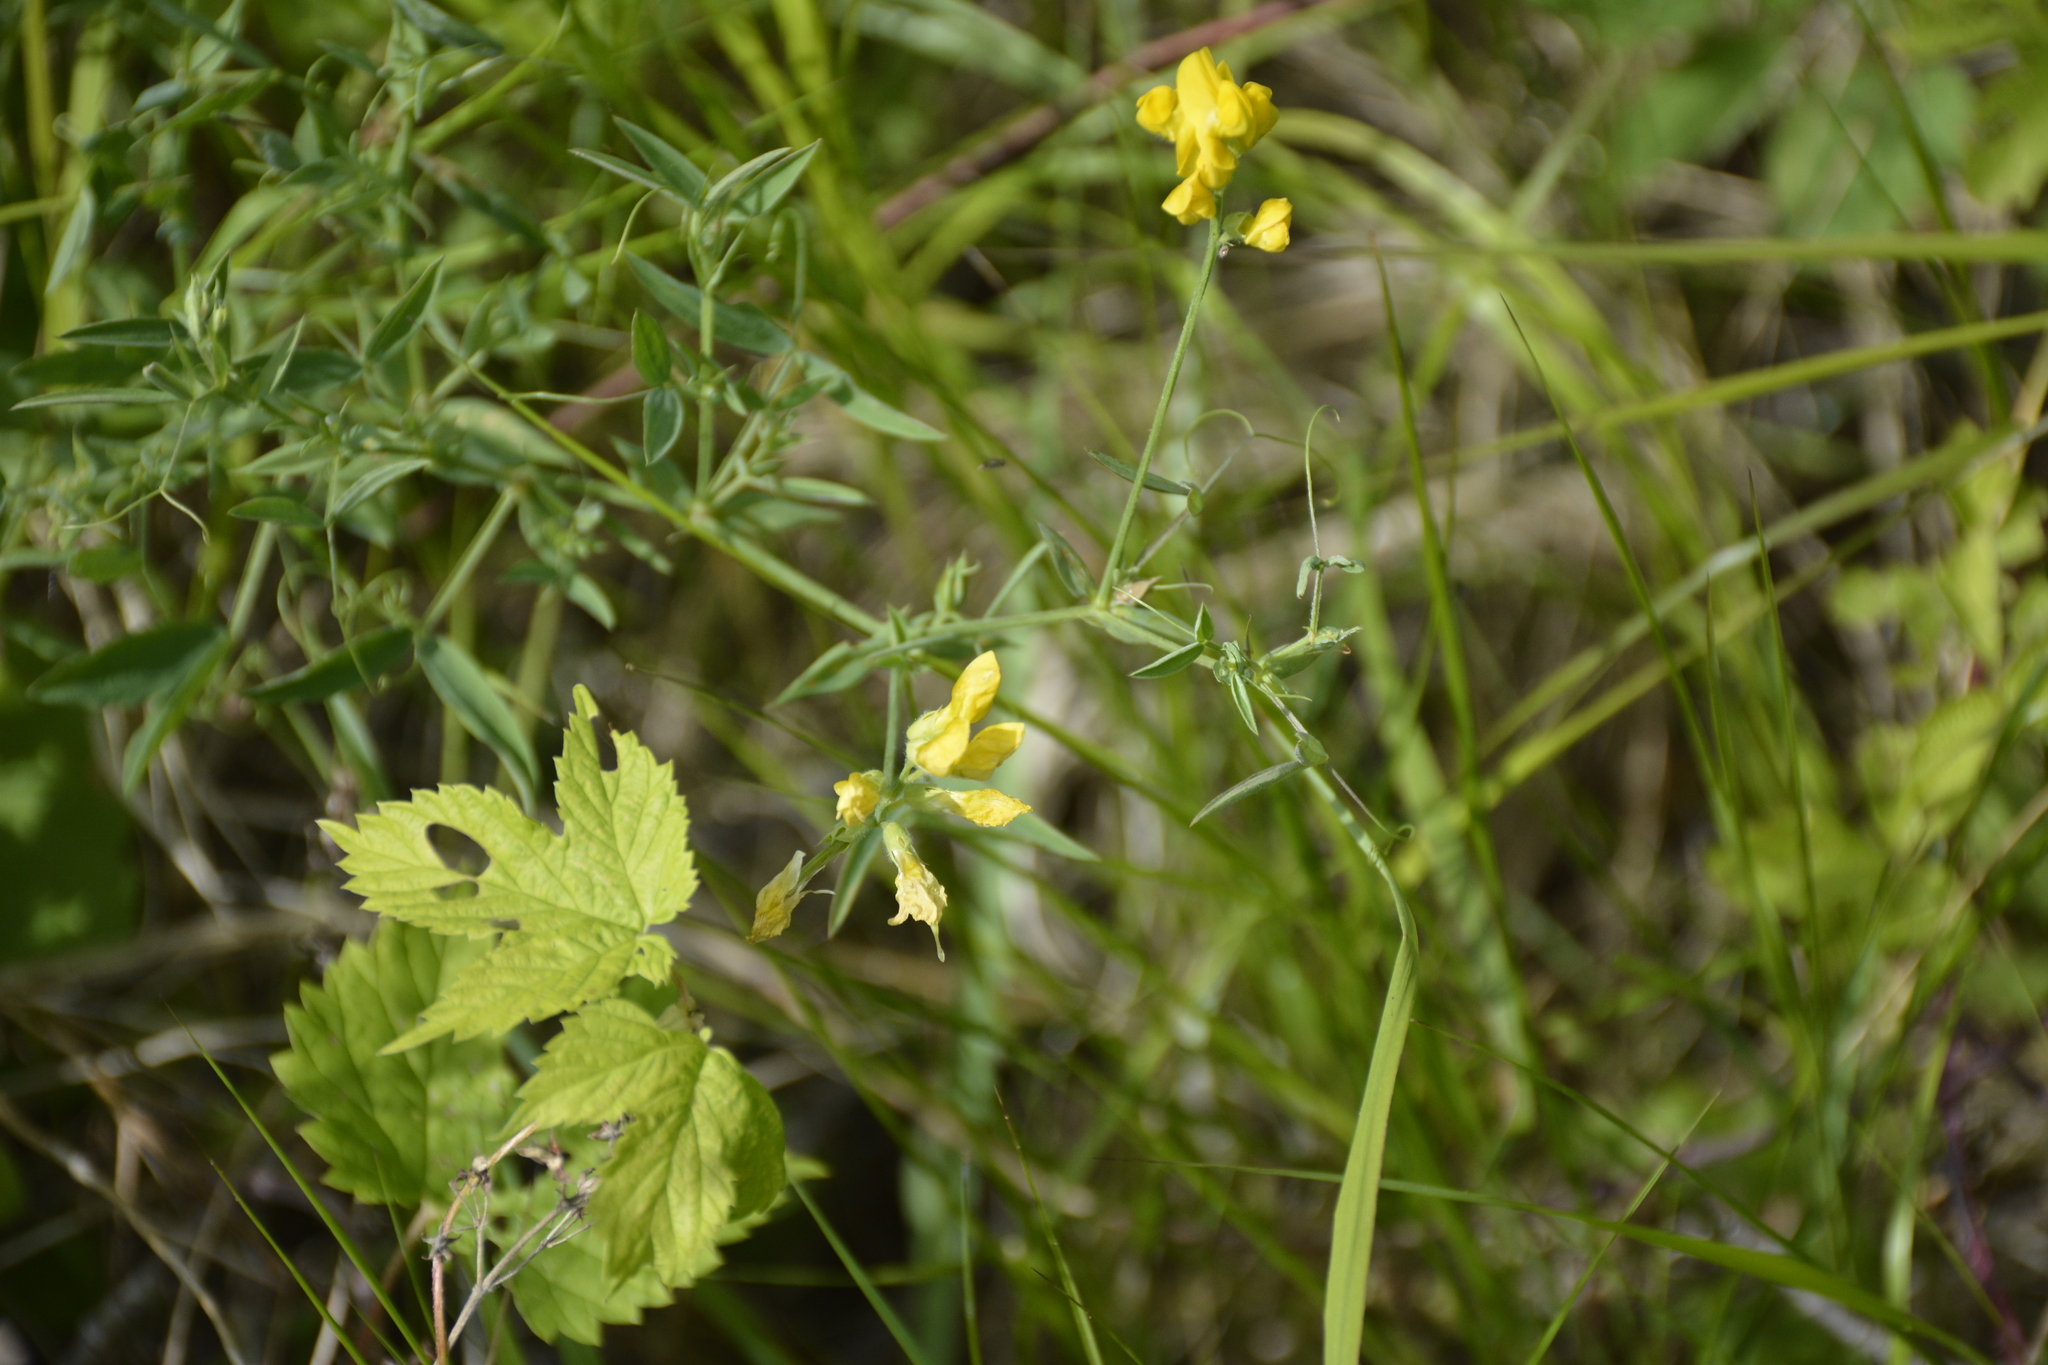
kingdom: Plantae
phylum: Tracheophyta
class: Magnoliopsida
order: Fabales
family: Fabaceae
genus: Lathyrus
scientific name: Lathyrus pratensis
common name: Meadow vetchling
